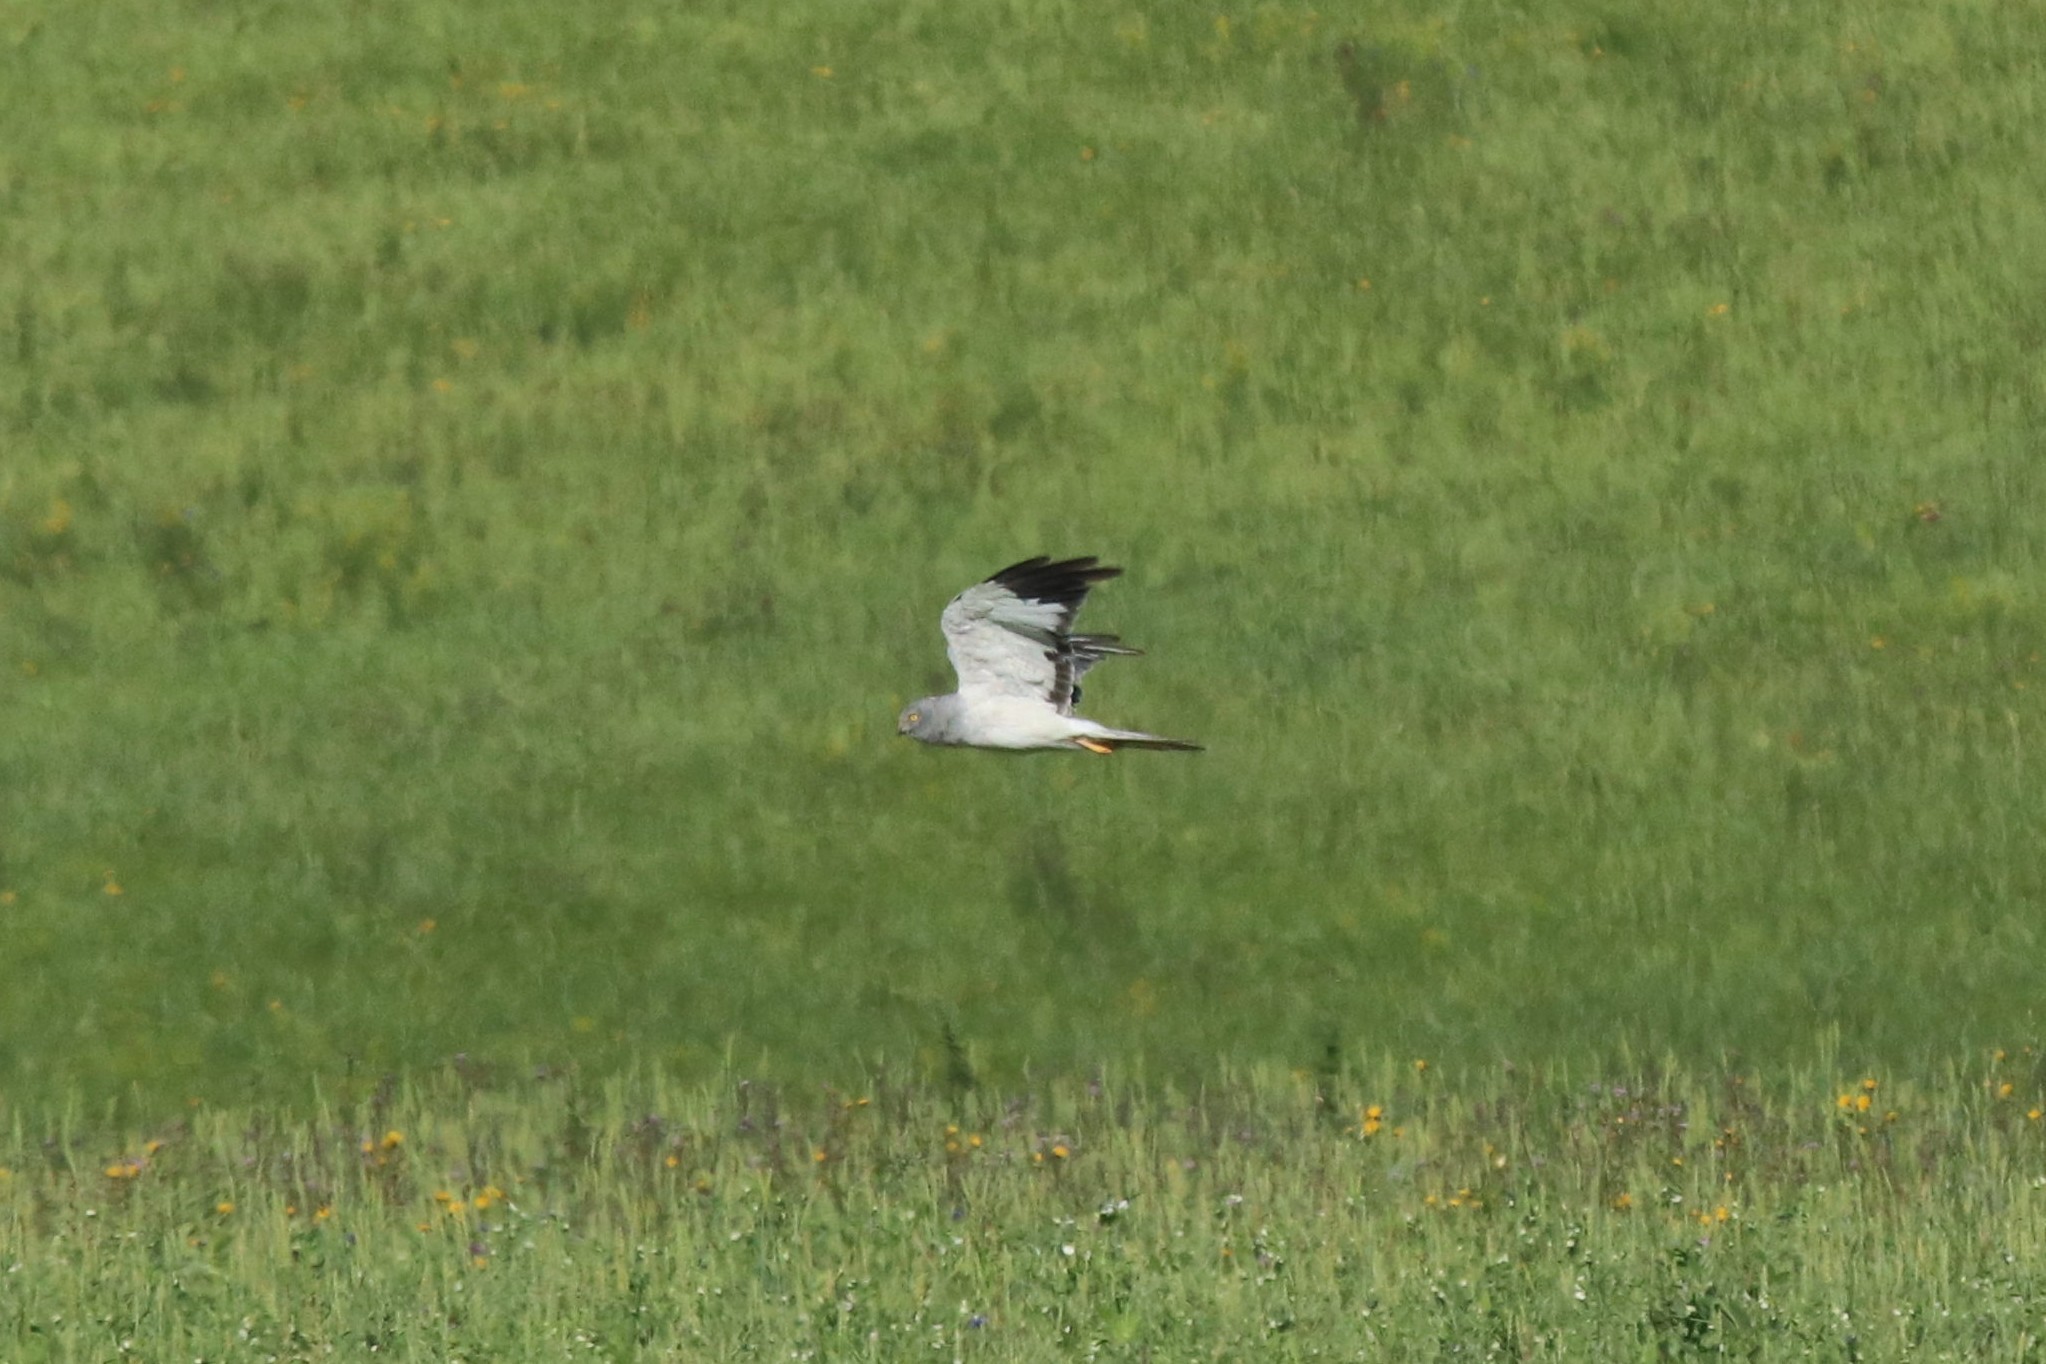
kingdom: Animalia
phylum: Chordata
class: Aves
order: Accipitriformes
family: Accipitridae
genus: Circus
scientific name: Circus cyaneus
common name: Hen harrier
